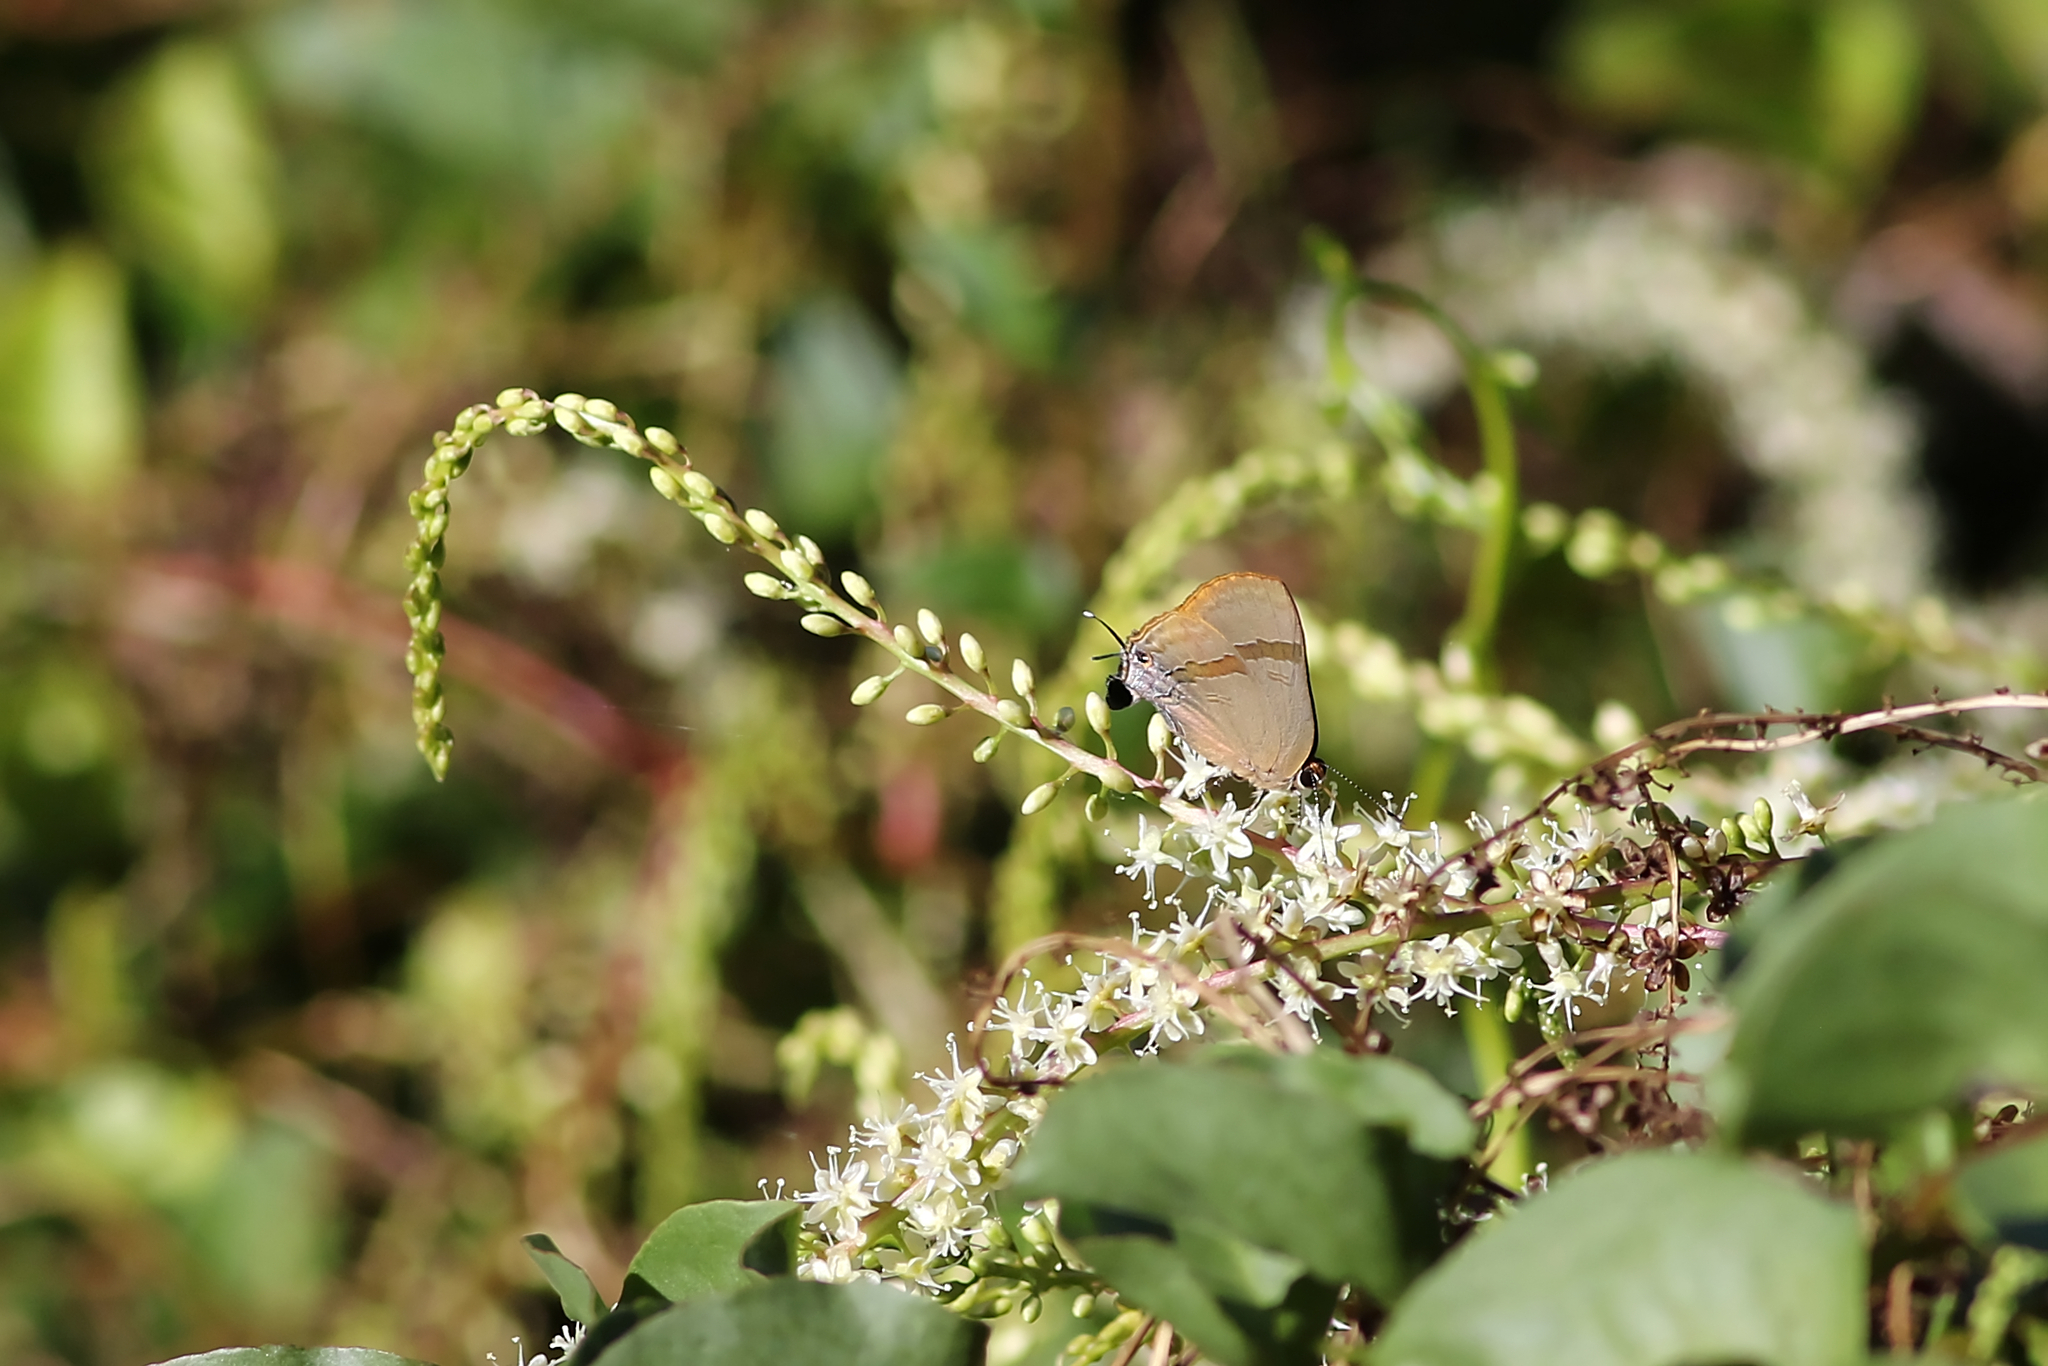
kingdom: Animalia
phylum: Arthropoda
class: Insecta
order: Lepidoptera
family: Lycaenidae
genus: Rapala
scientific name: Rapala varuna
